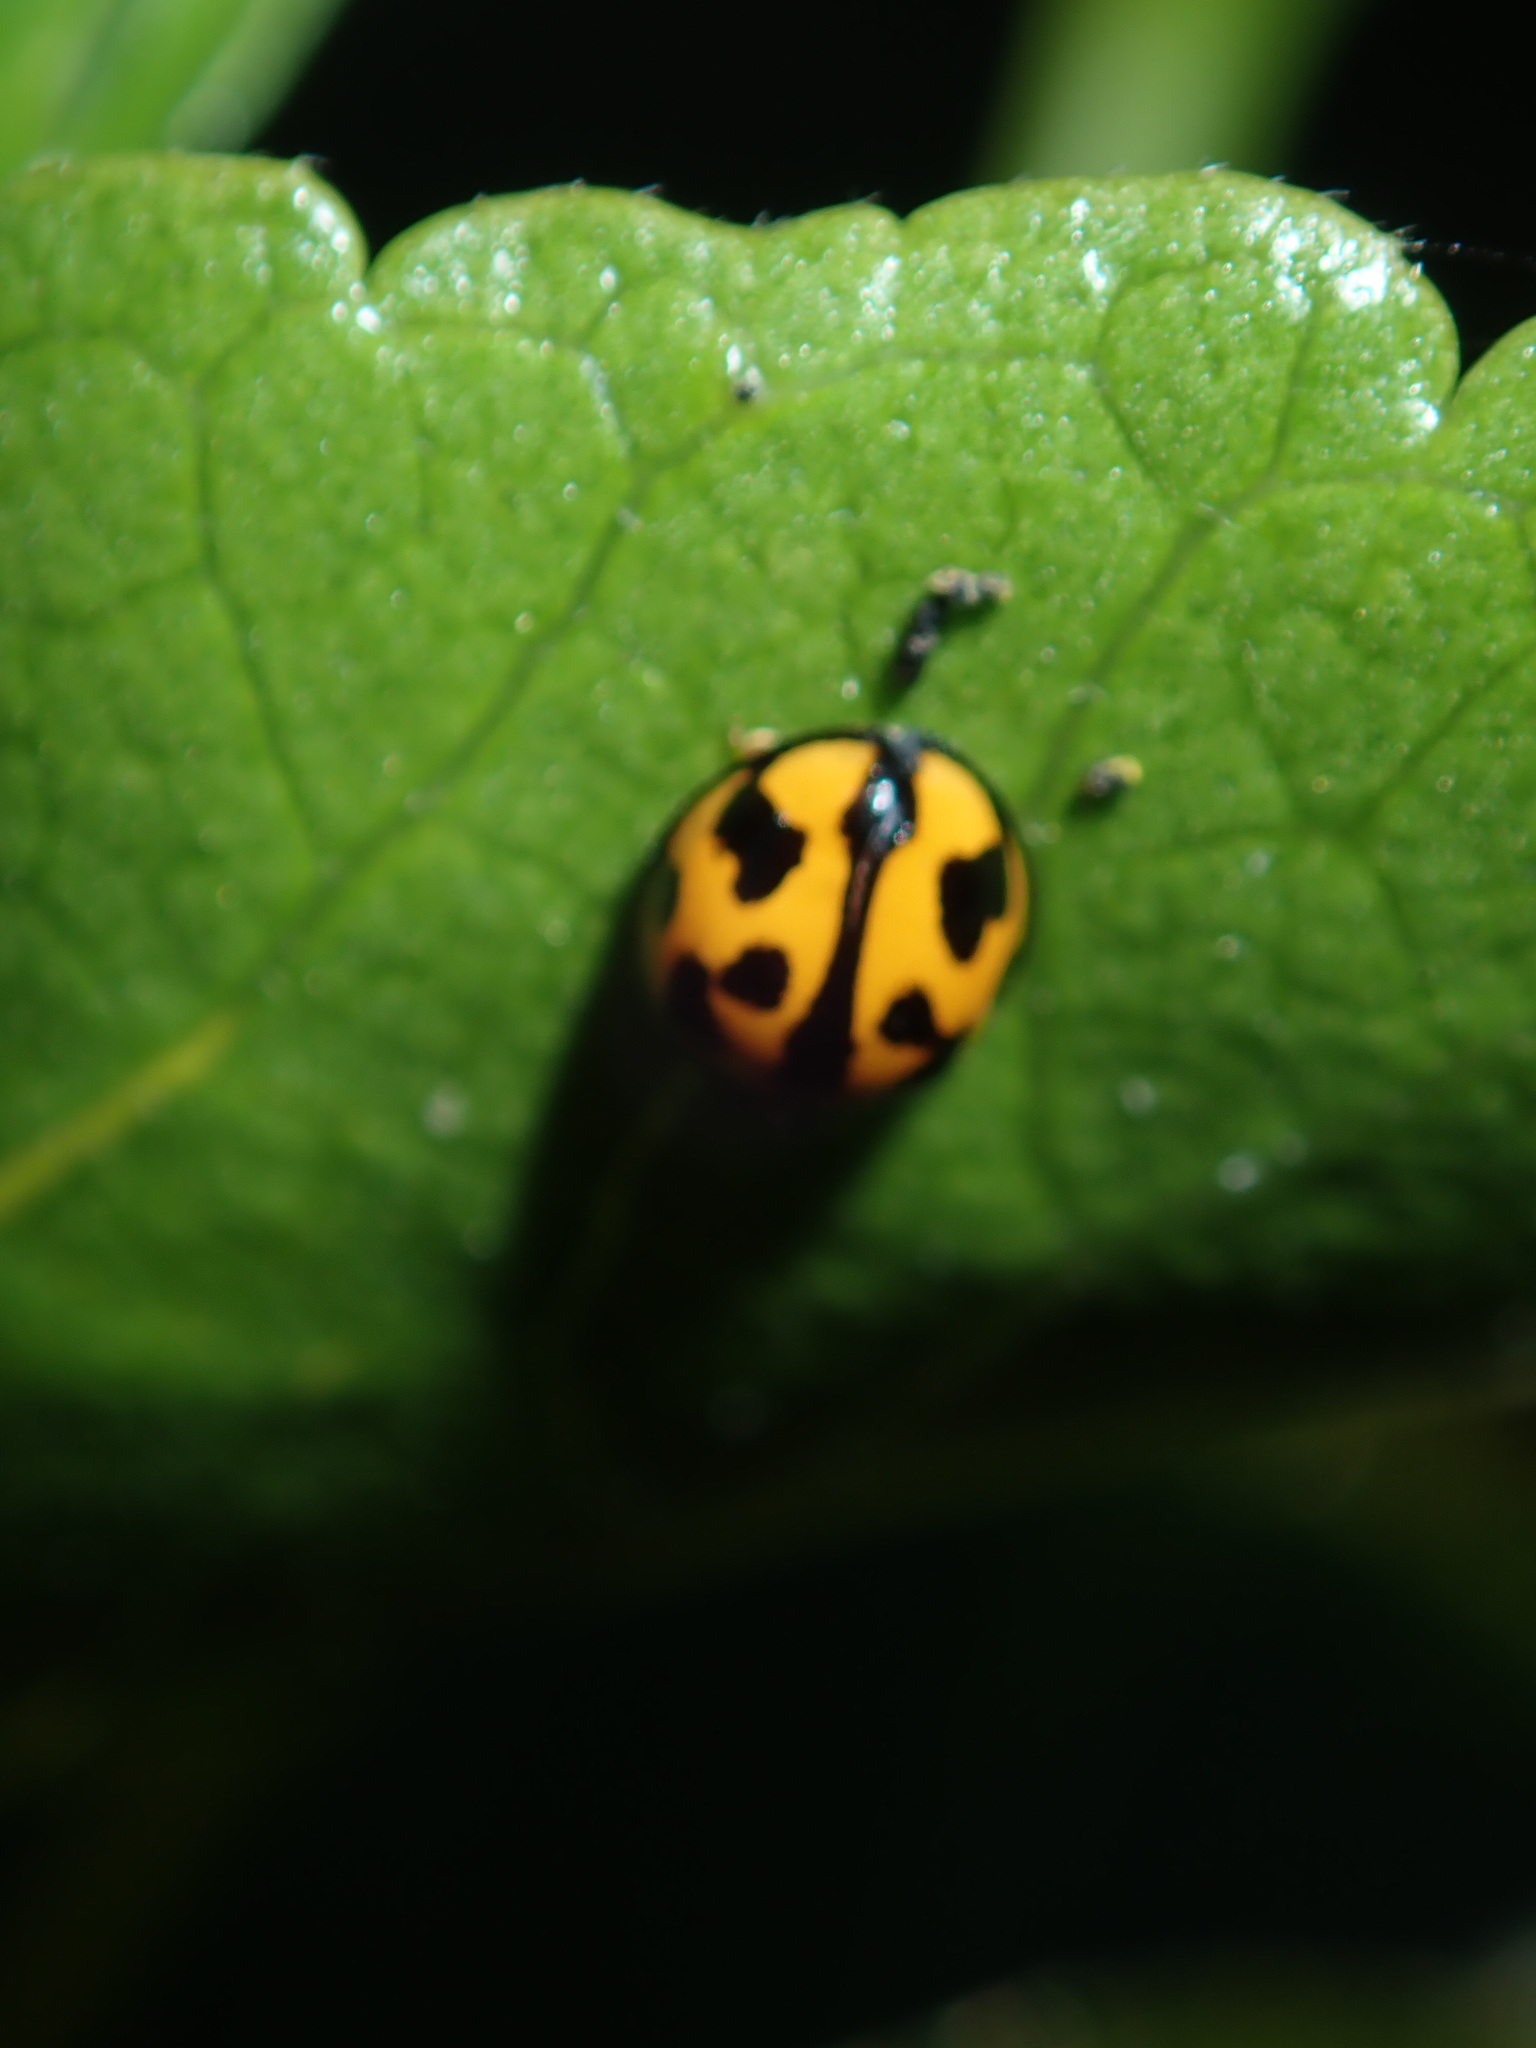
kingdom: Animalia
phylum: Arthropoda
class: Insecta
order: Coleoptera
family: Coccinellidae
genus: Coelophora
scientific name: Coelophora inaequalis
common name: Common australian lady beetle
